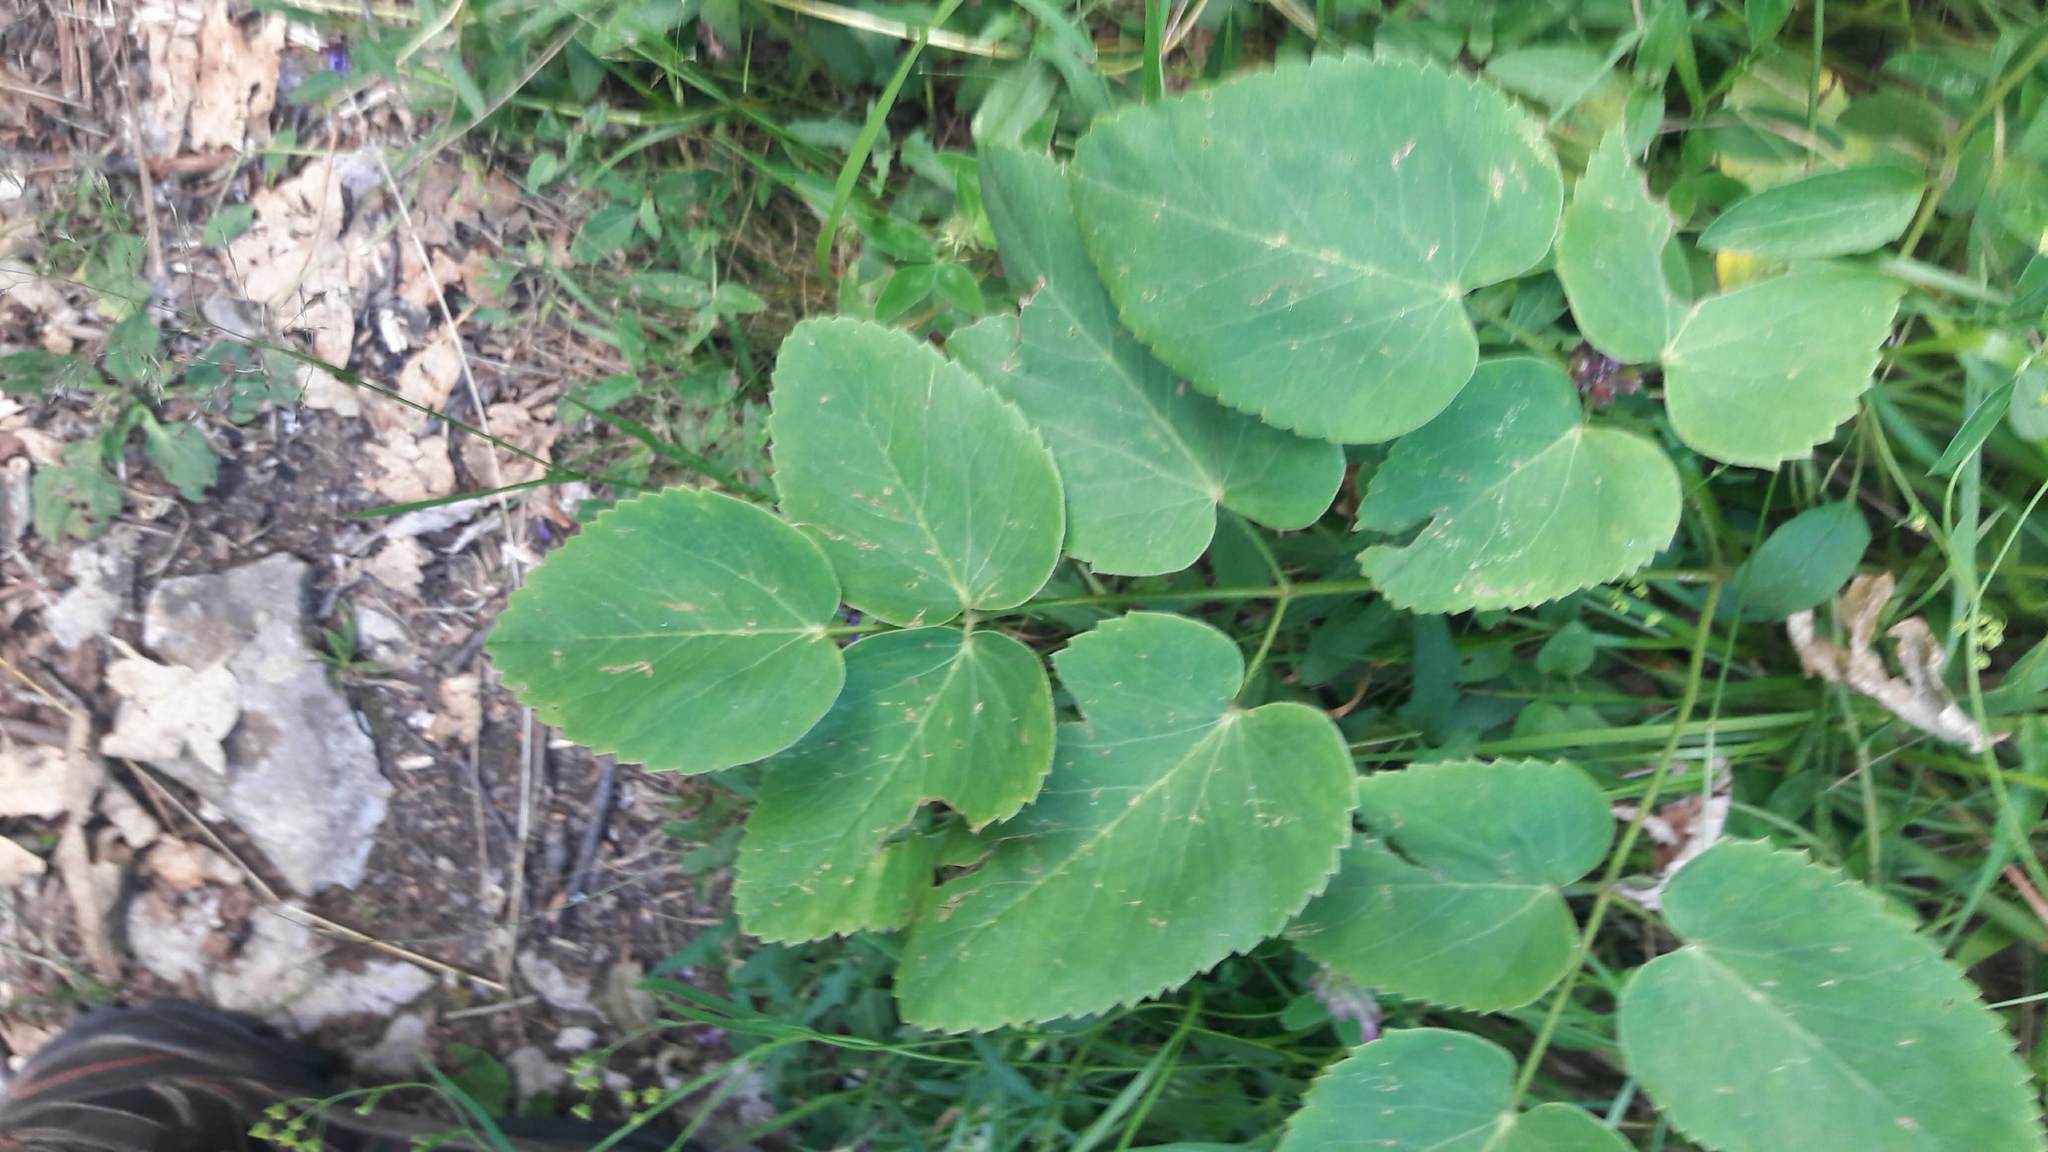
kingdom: Plantae
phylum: Tracheophyta
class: Magnoliopsida
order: Apiales
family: Apiaceae
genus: Laserpitium
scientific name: Laserpitium latifolium
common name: Broadleaf sermountain
